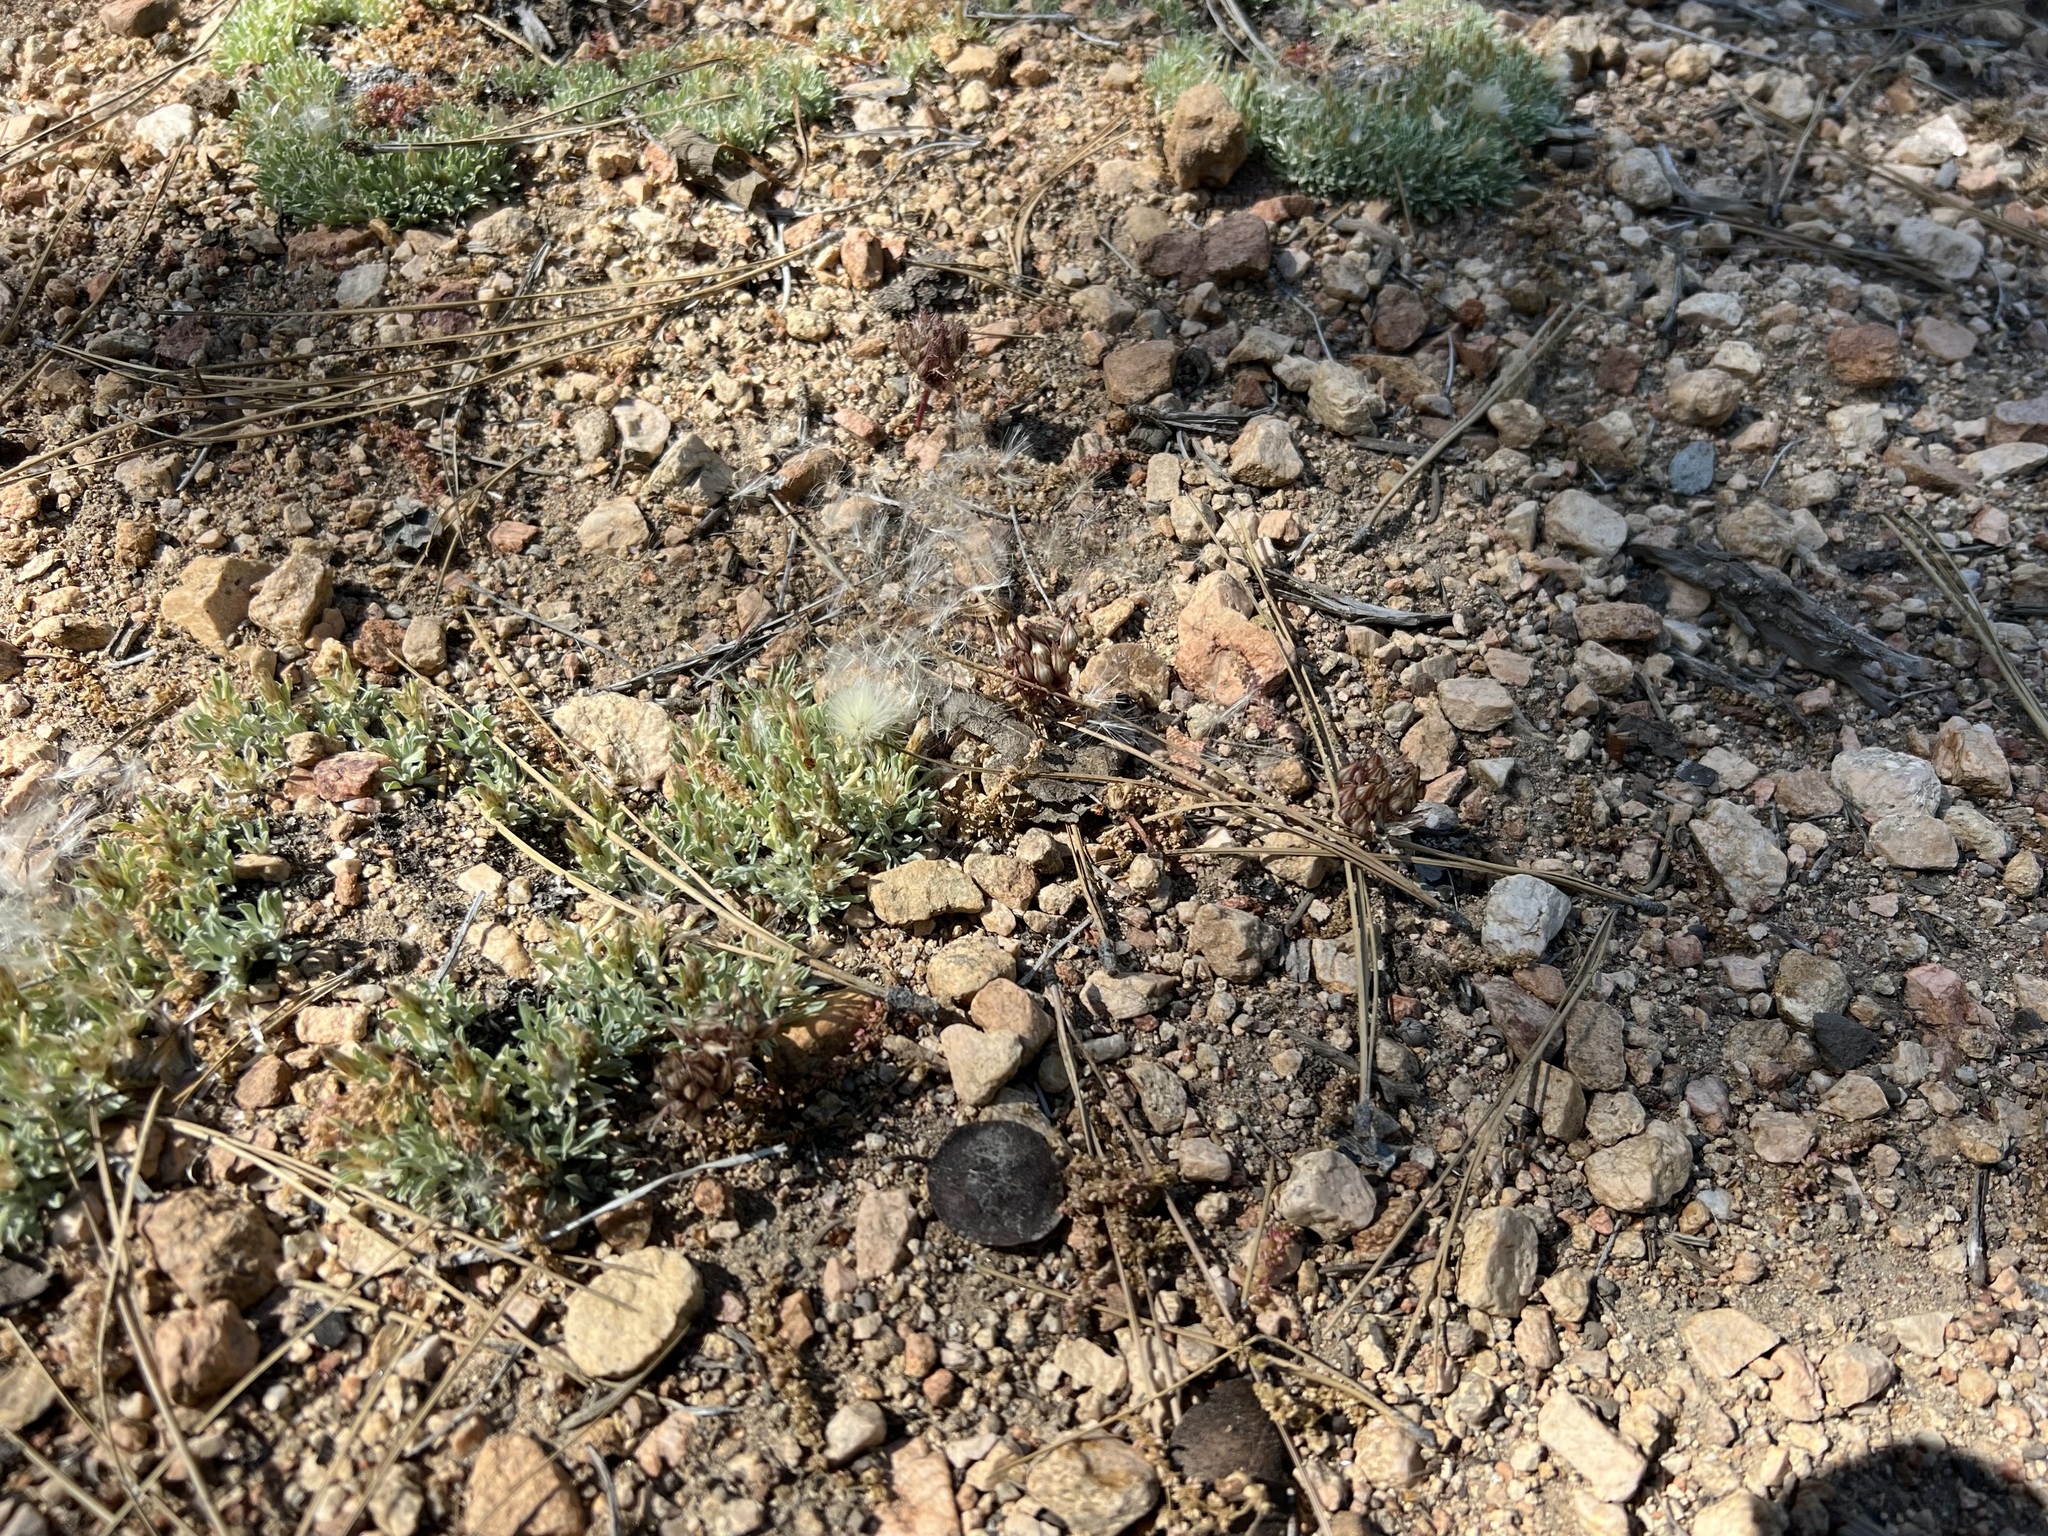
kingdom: Plantae
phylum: Tracheophyta
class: Magnoliopsida
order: Asterales
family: Asteraceae
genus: Antennaria
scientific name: Antennaria dimorpha
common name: Cushion pussytoes
